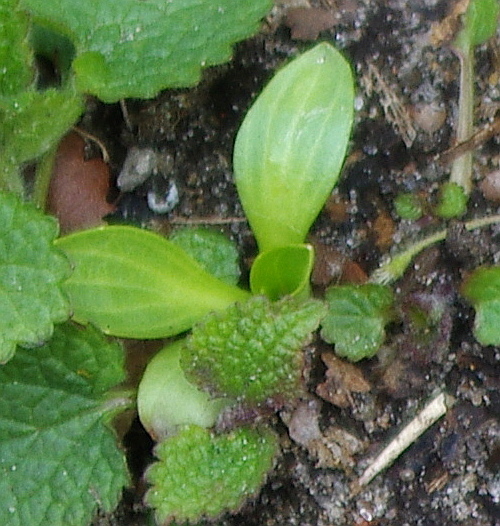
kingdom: Plantae
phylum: Tracheophyta
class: Magnoliopsida
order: Lamiales
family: Plantaginaceae
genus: Plantago
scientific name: Plantago major
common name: Common plantain
